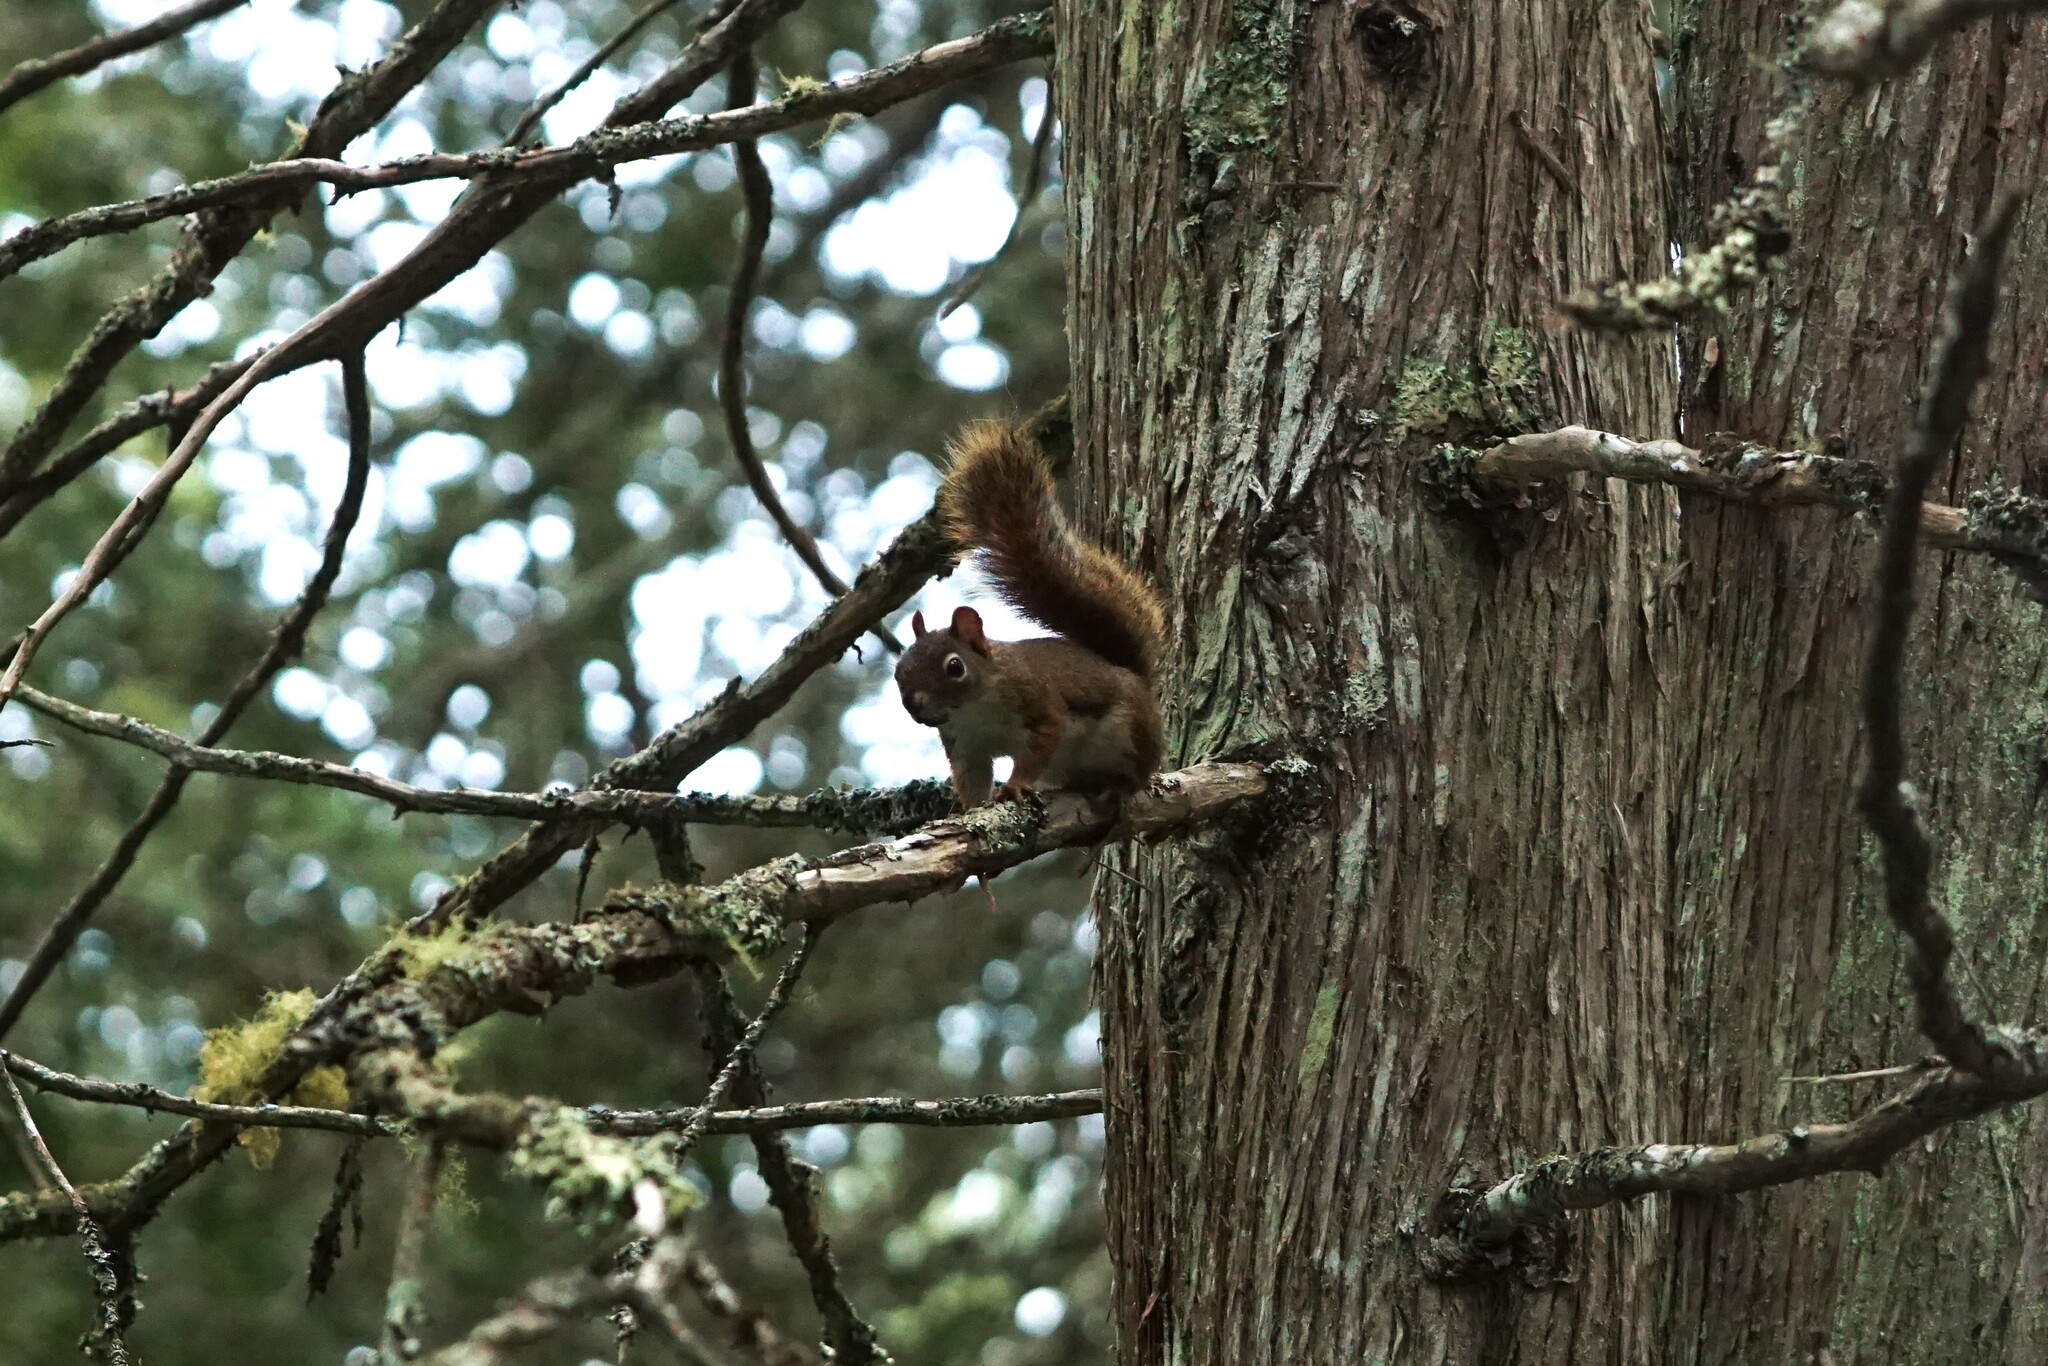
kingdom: Animalia
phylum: Chordata
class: Mammalia
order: Rodentia
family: Sciuridae
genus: Tamiasciurus
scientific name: Tamiasciurus hudsonicus
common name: Red squirrel
